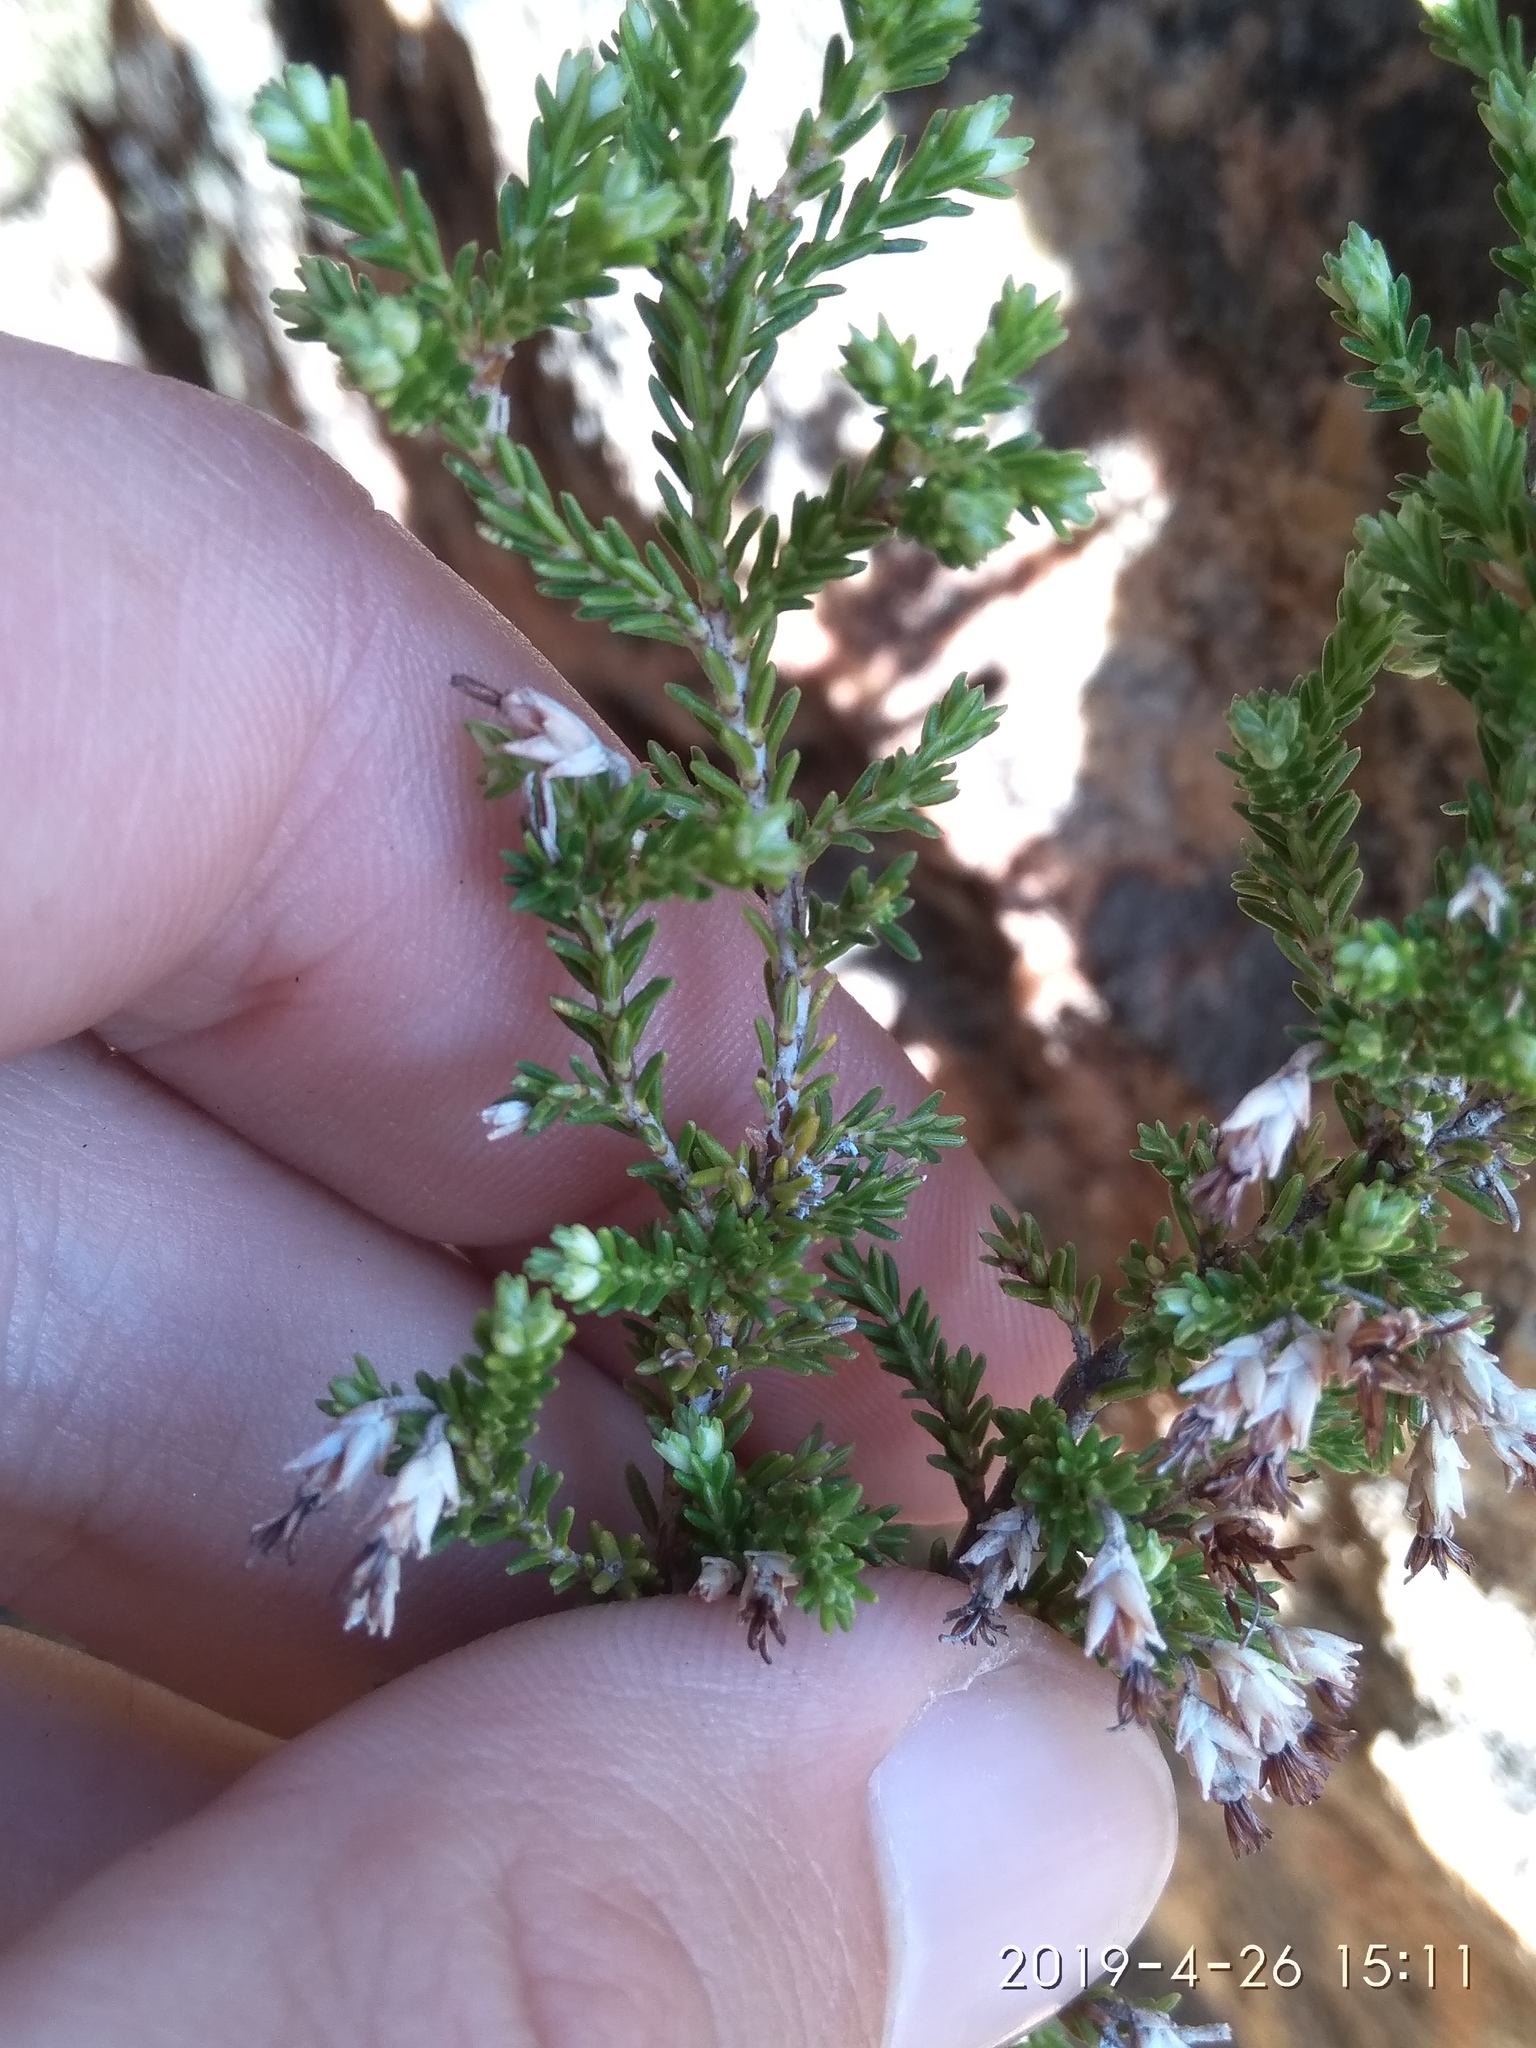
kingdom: Plantae
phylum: Tracheophyta
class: Magnoliopsida
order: Ericales
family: Ericaceae
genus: Erica
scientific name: Erica imbricata
